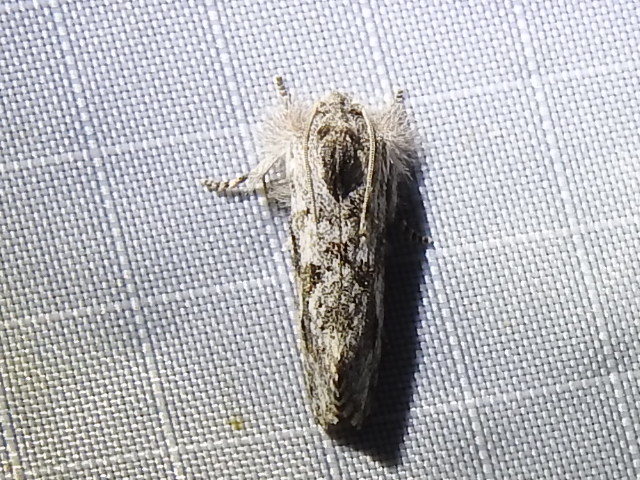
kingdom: Animalia
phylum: Arthropoda
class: Insecta
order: Lepidoptera
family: Tineidae
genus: Acrolophus
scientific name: Acrolophus griseus
